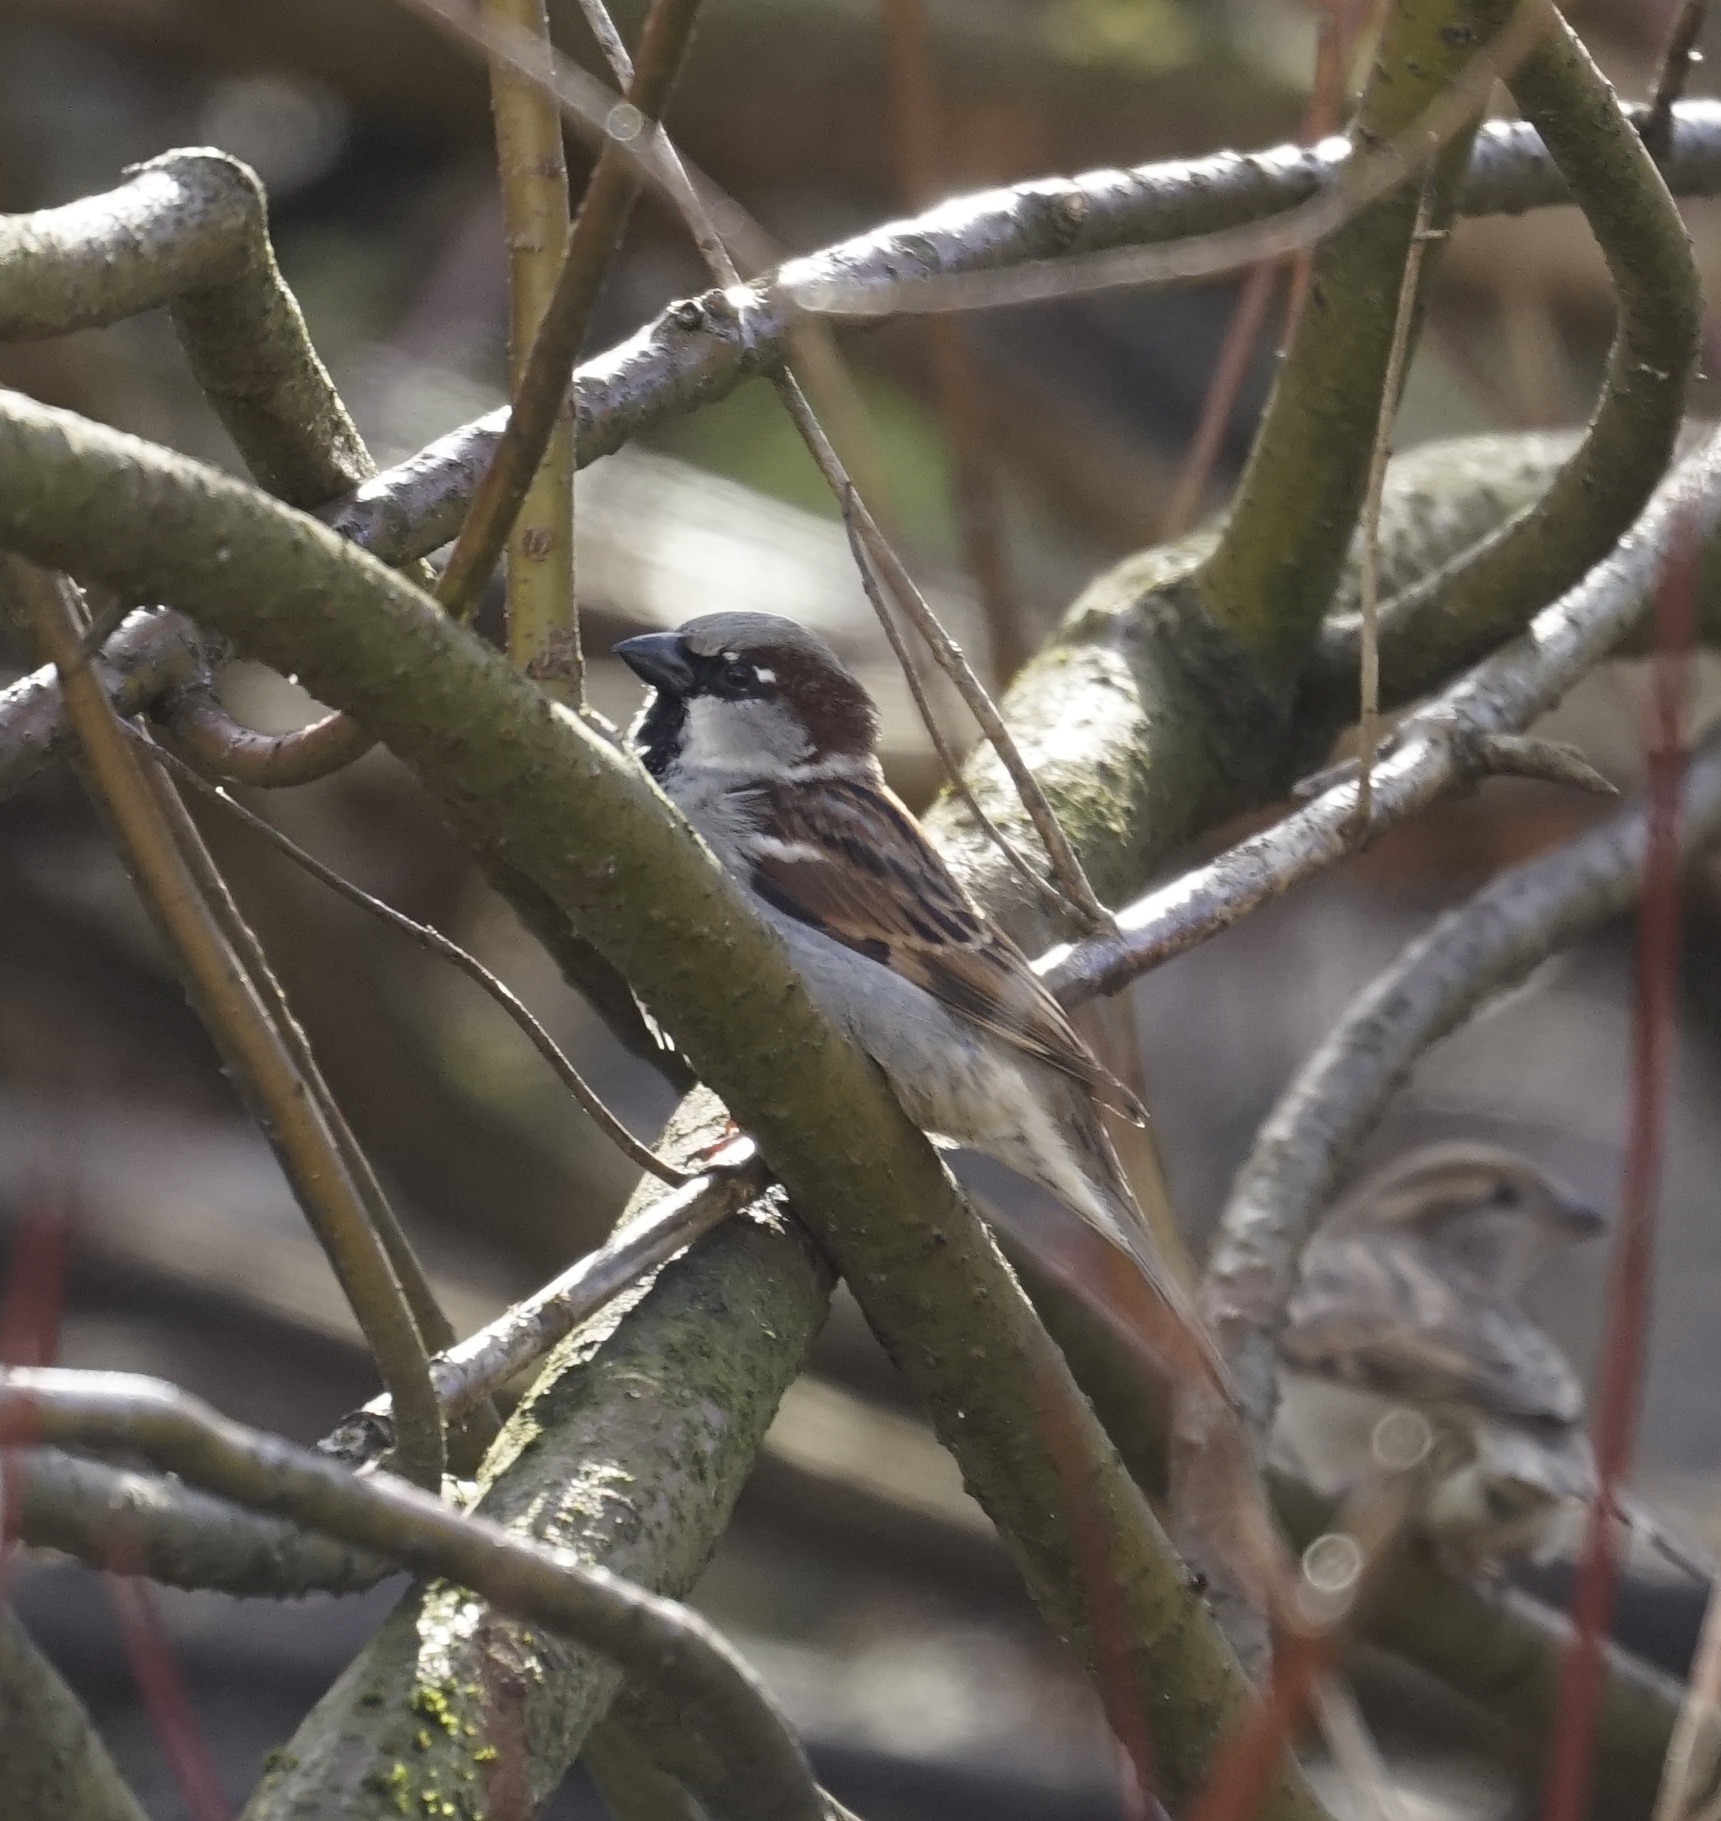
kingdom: Animalia
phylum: Chordata
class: Aves
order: Passeriformes
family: Passeridae
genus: Passer
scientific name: Passer domesticus
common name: House sparrow
